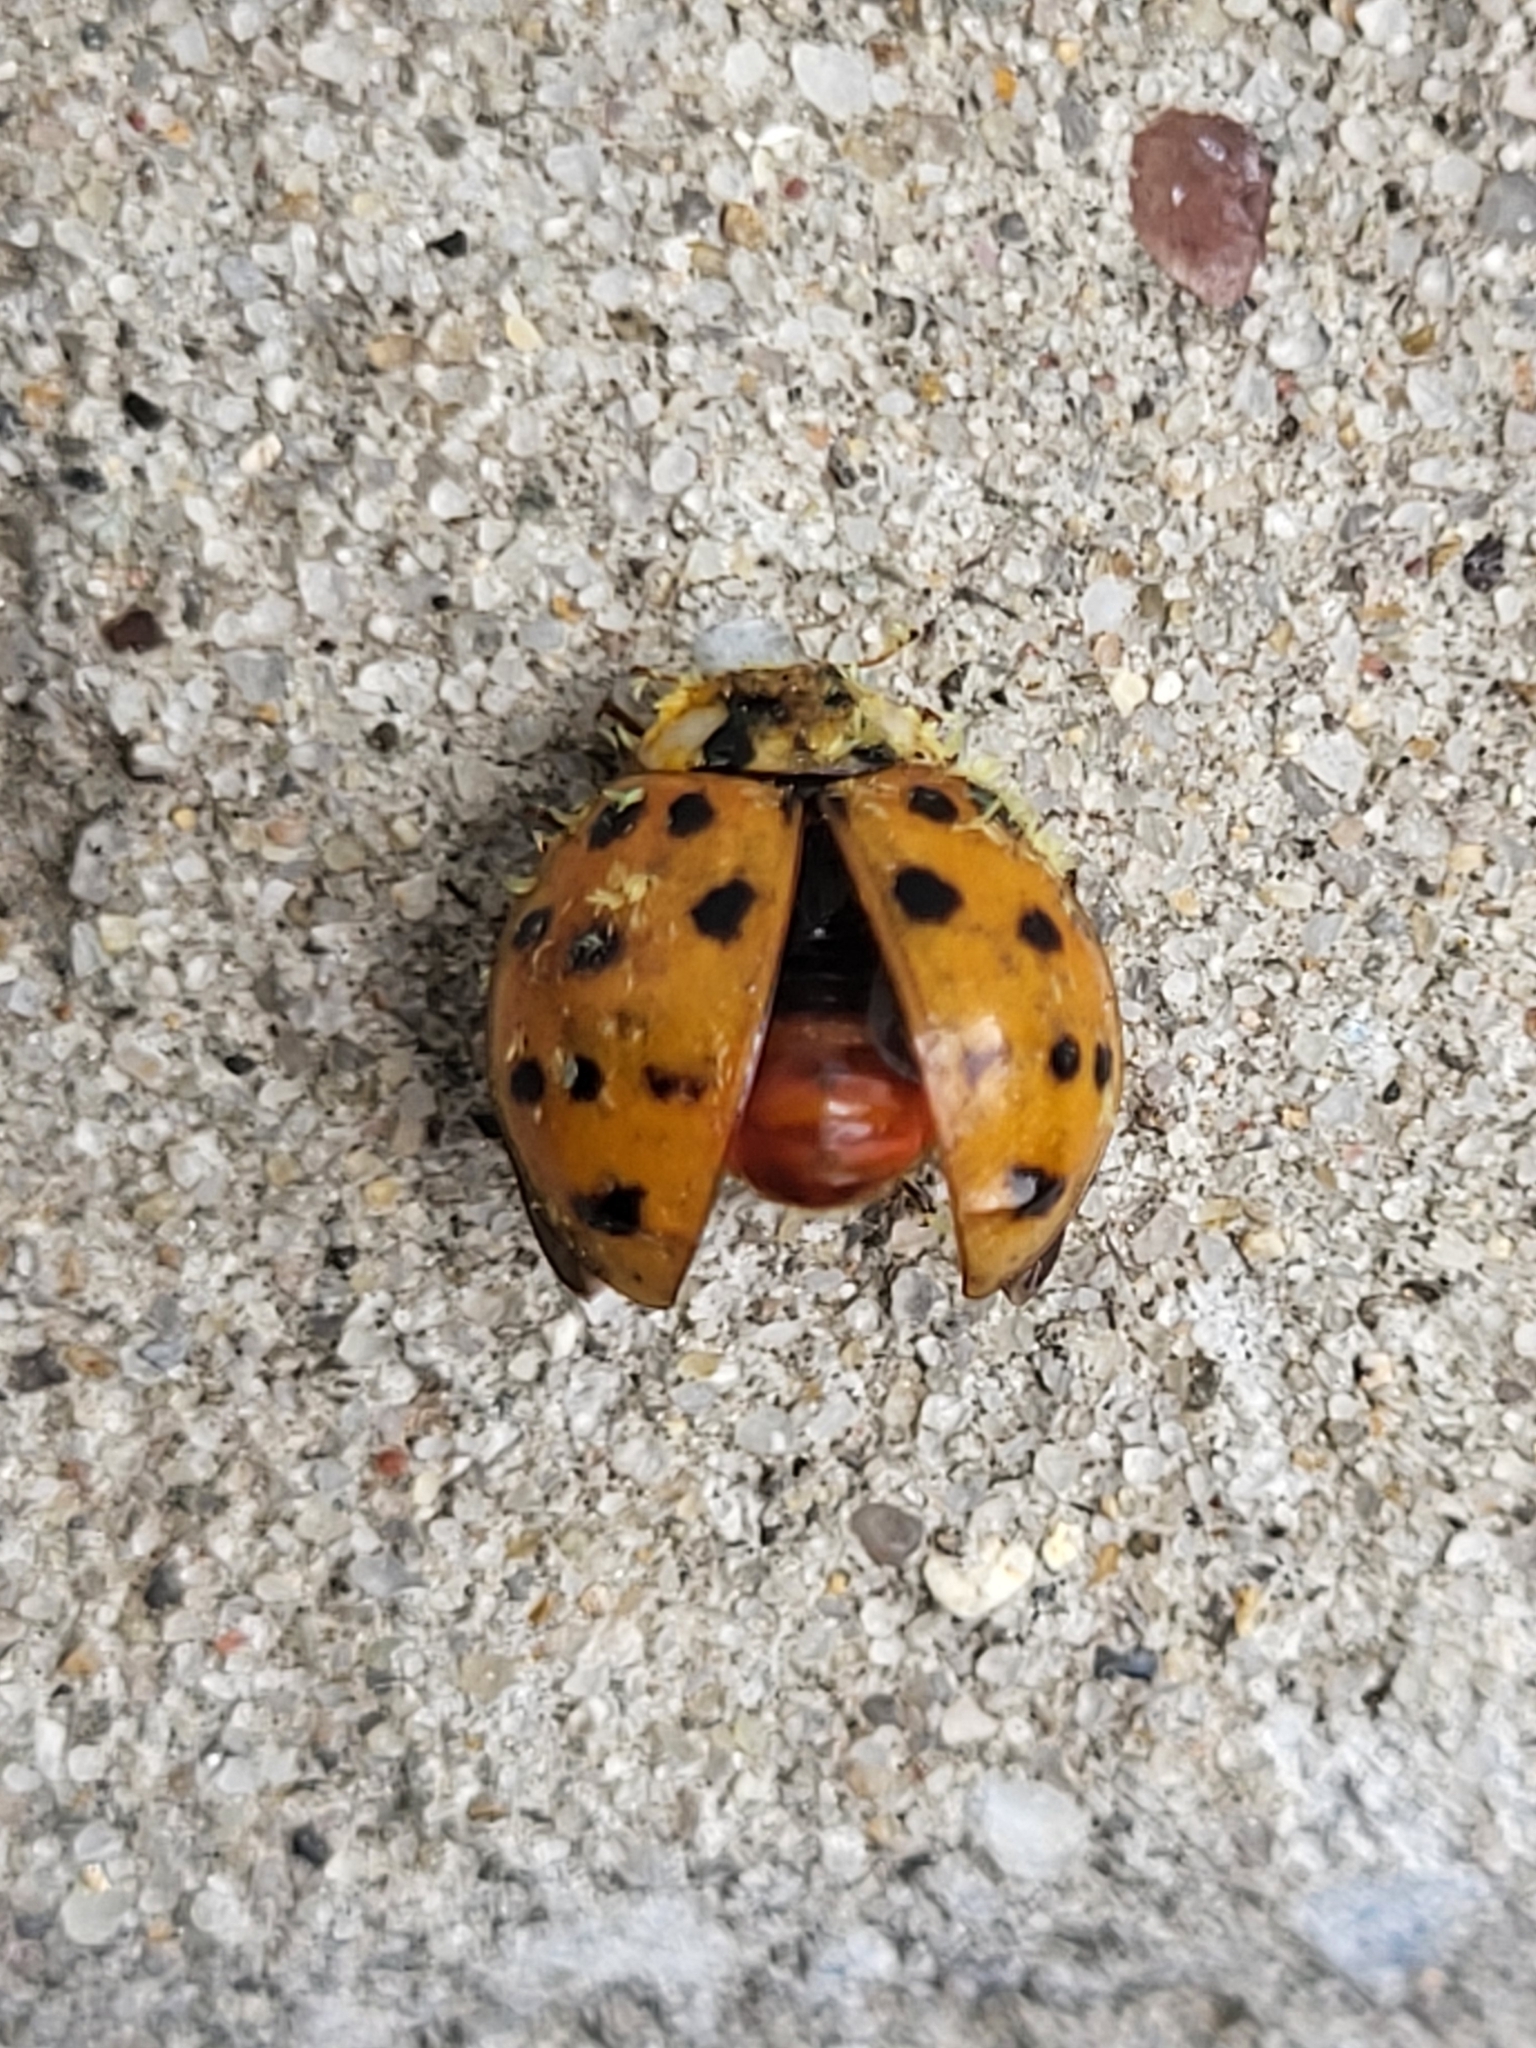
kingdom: Animalia
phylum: Arthropoda
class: Insecta
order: Coleoptera
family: Coccinellidae
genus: Harmonia
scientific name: Harmonia axyridis
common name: Harlequin ladybird
